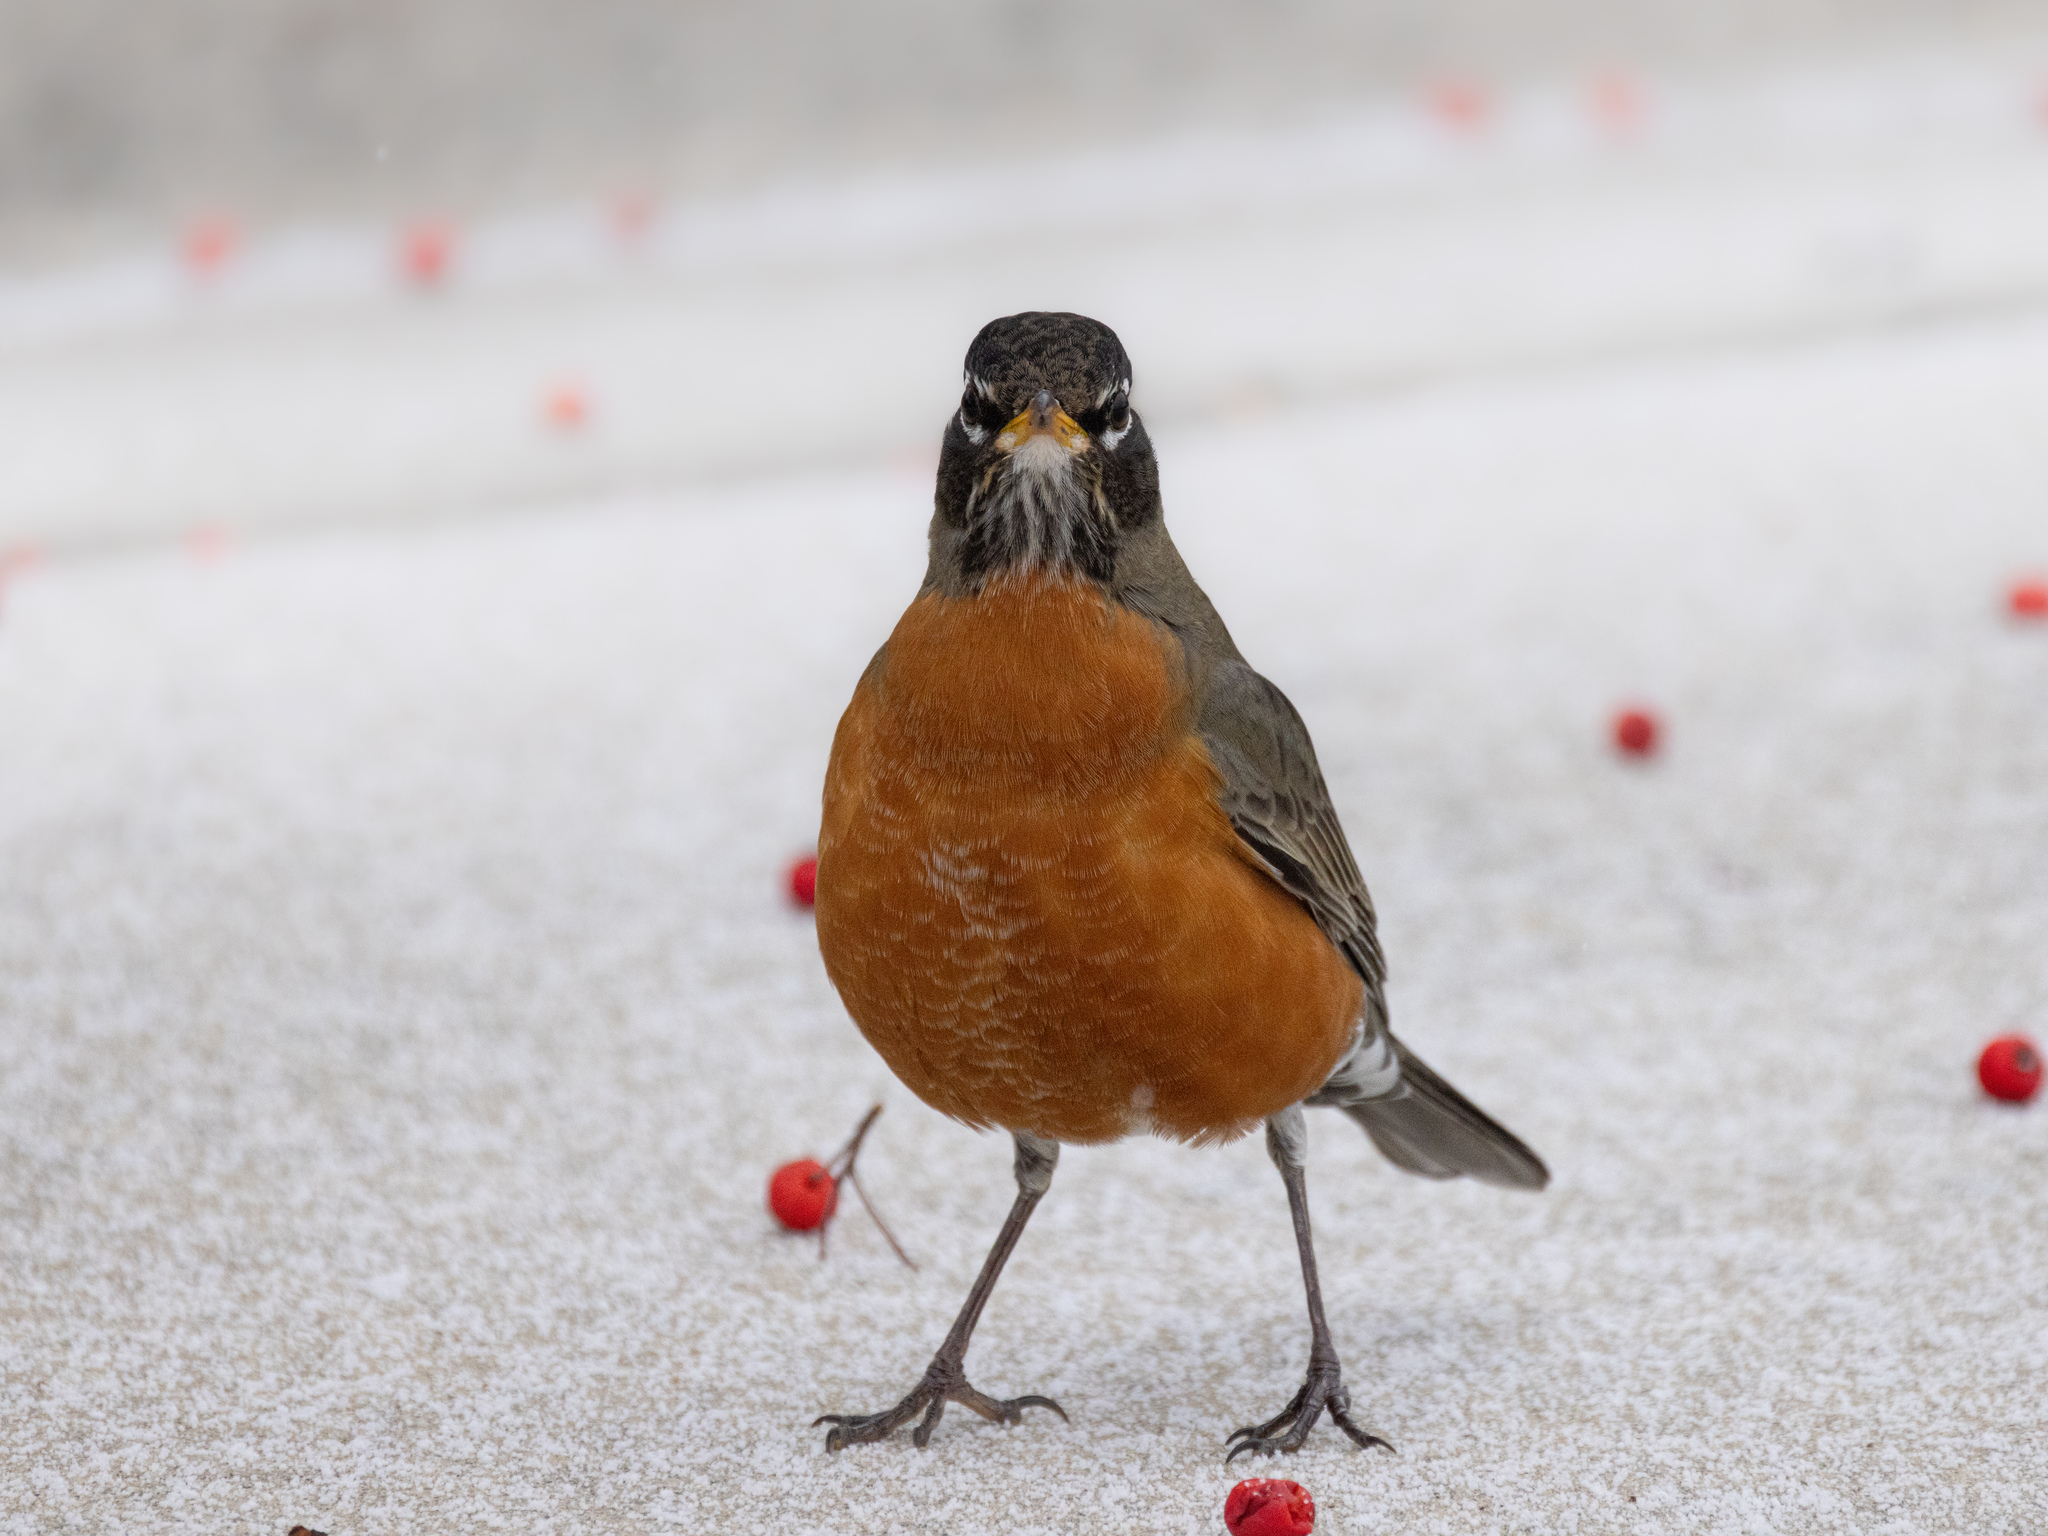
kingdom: Animalia
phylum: Chordata
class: Aves
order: Passeriformes
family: Turdidae
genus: Turdus
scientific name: Turdus migratorius
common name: American robin
